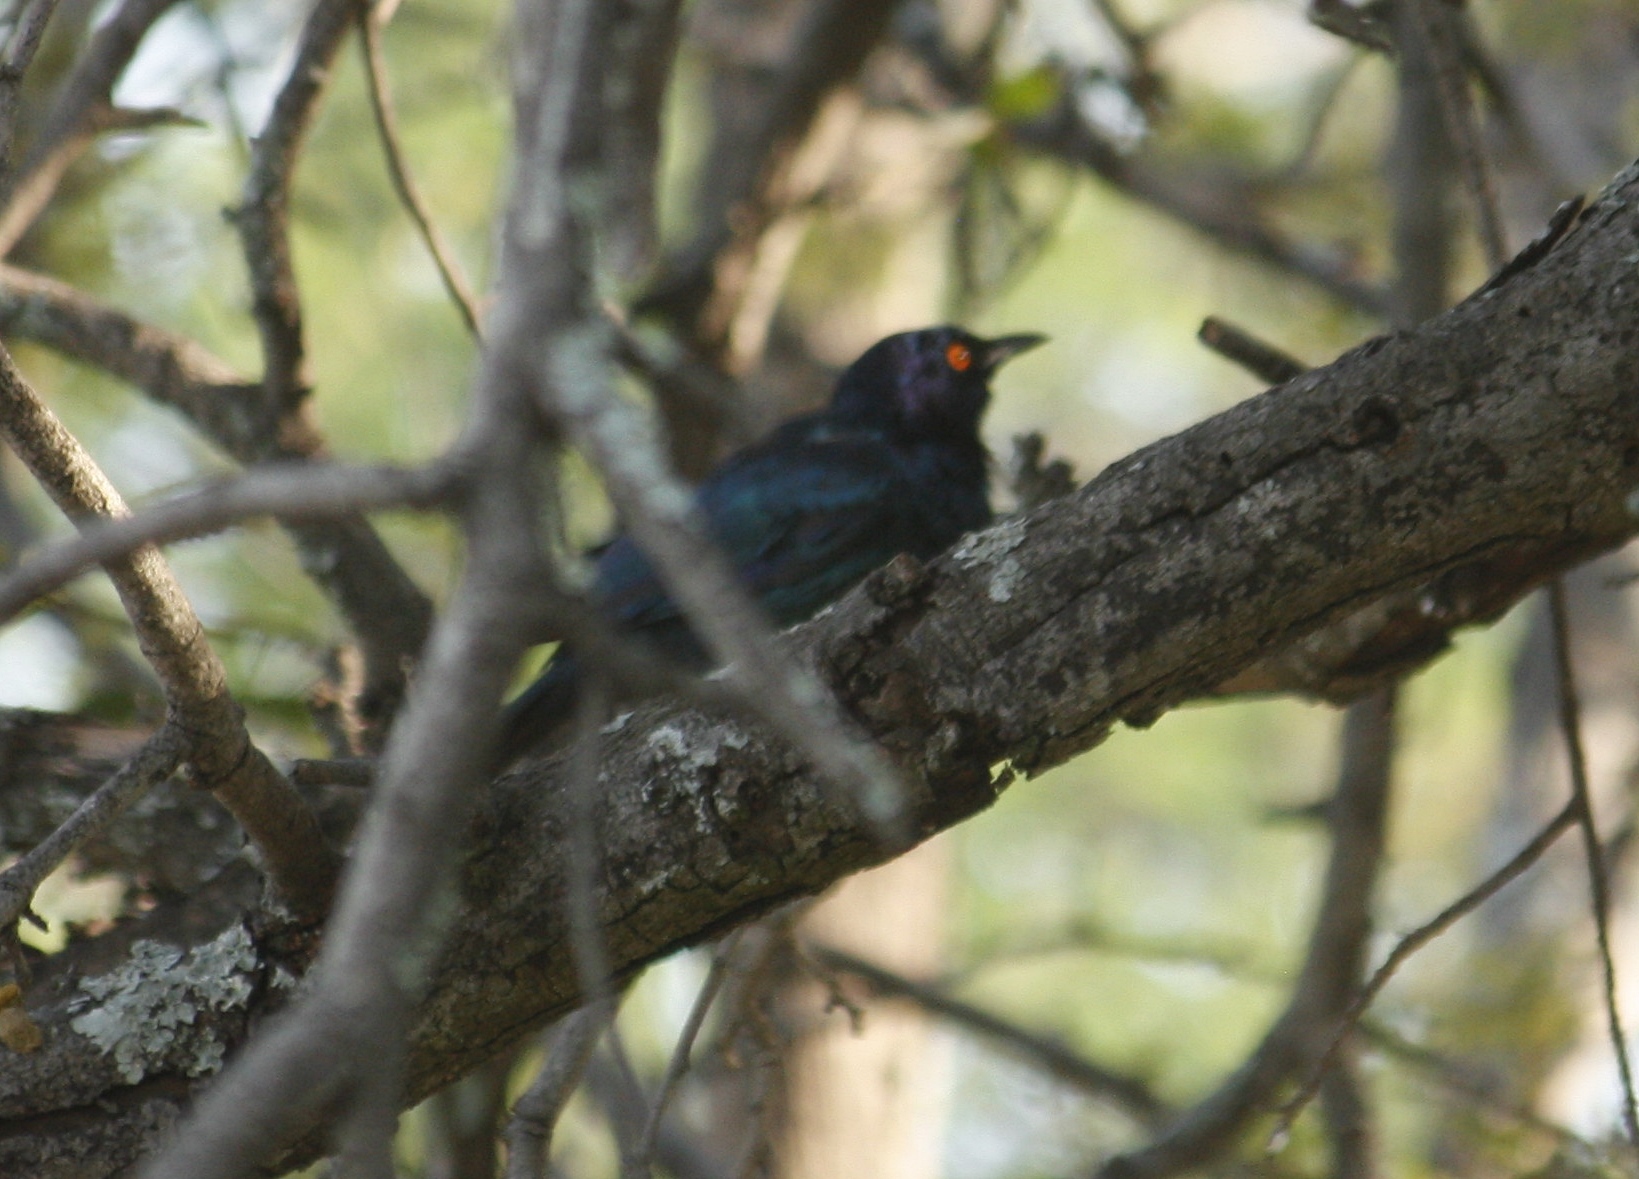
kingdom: Animalia
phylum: Chordata
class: Aves
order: Passeriformes
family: Sturnidae
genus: Lamprotornis
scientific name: Lamprotornis nitens
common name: Cape starling
